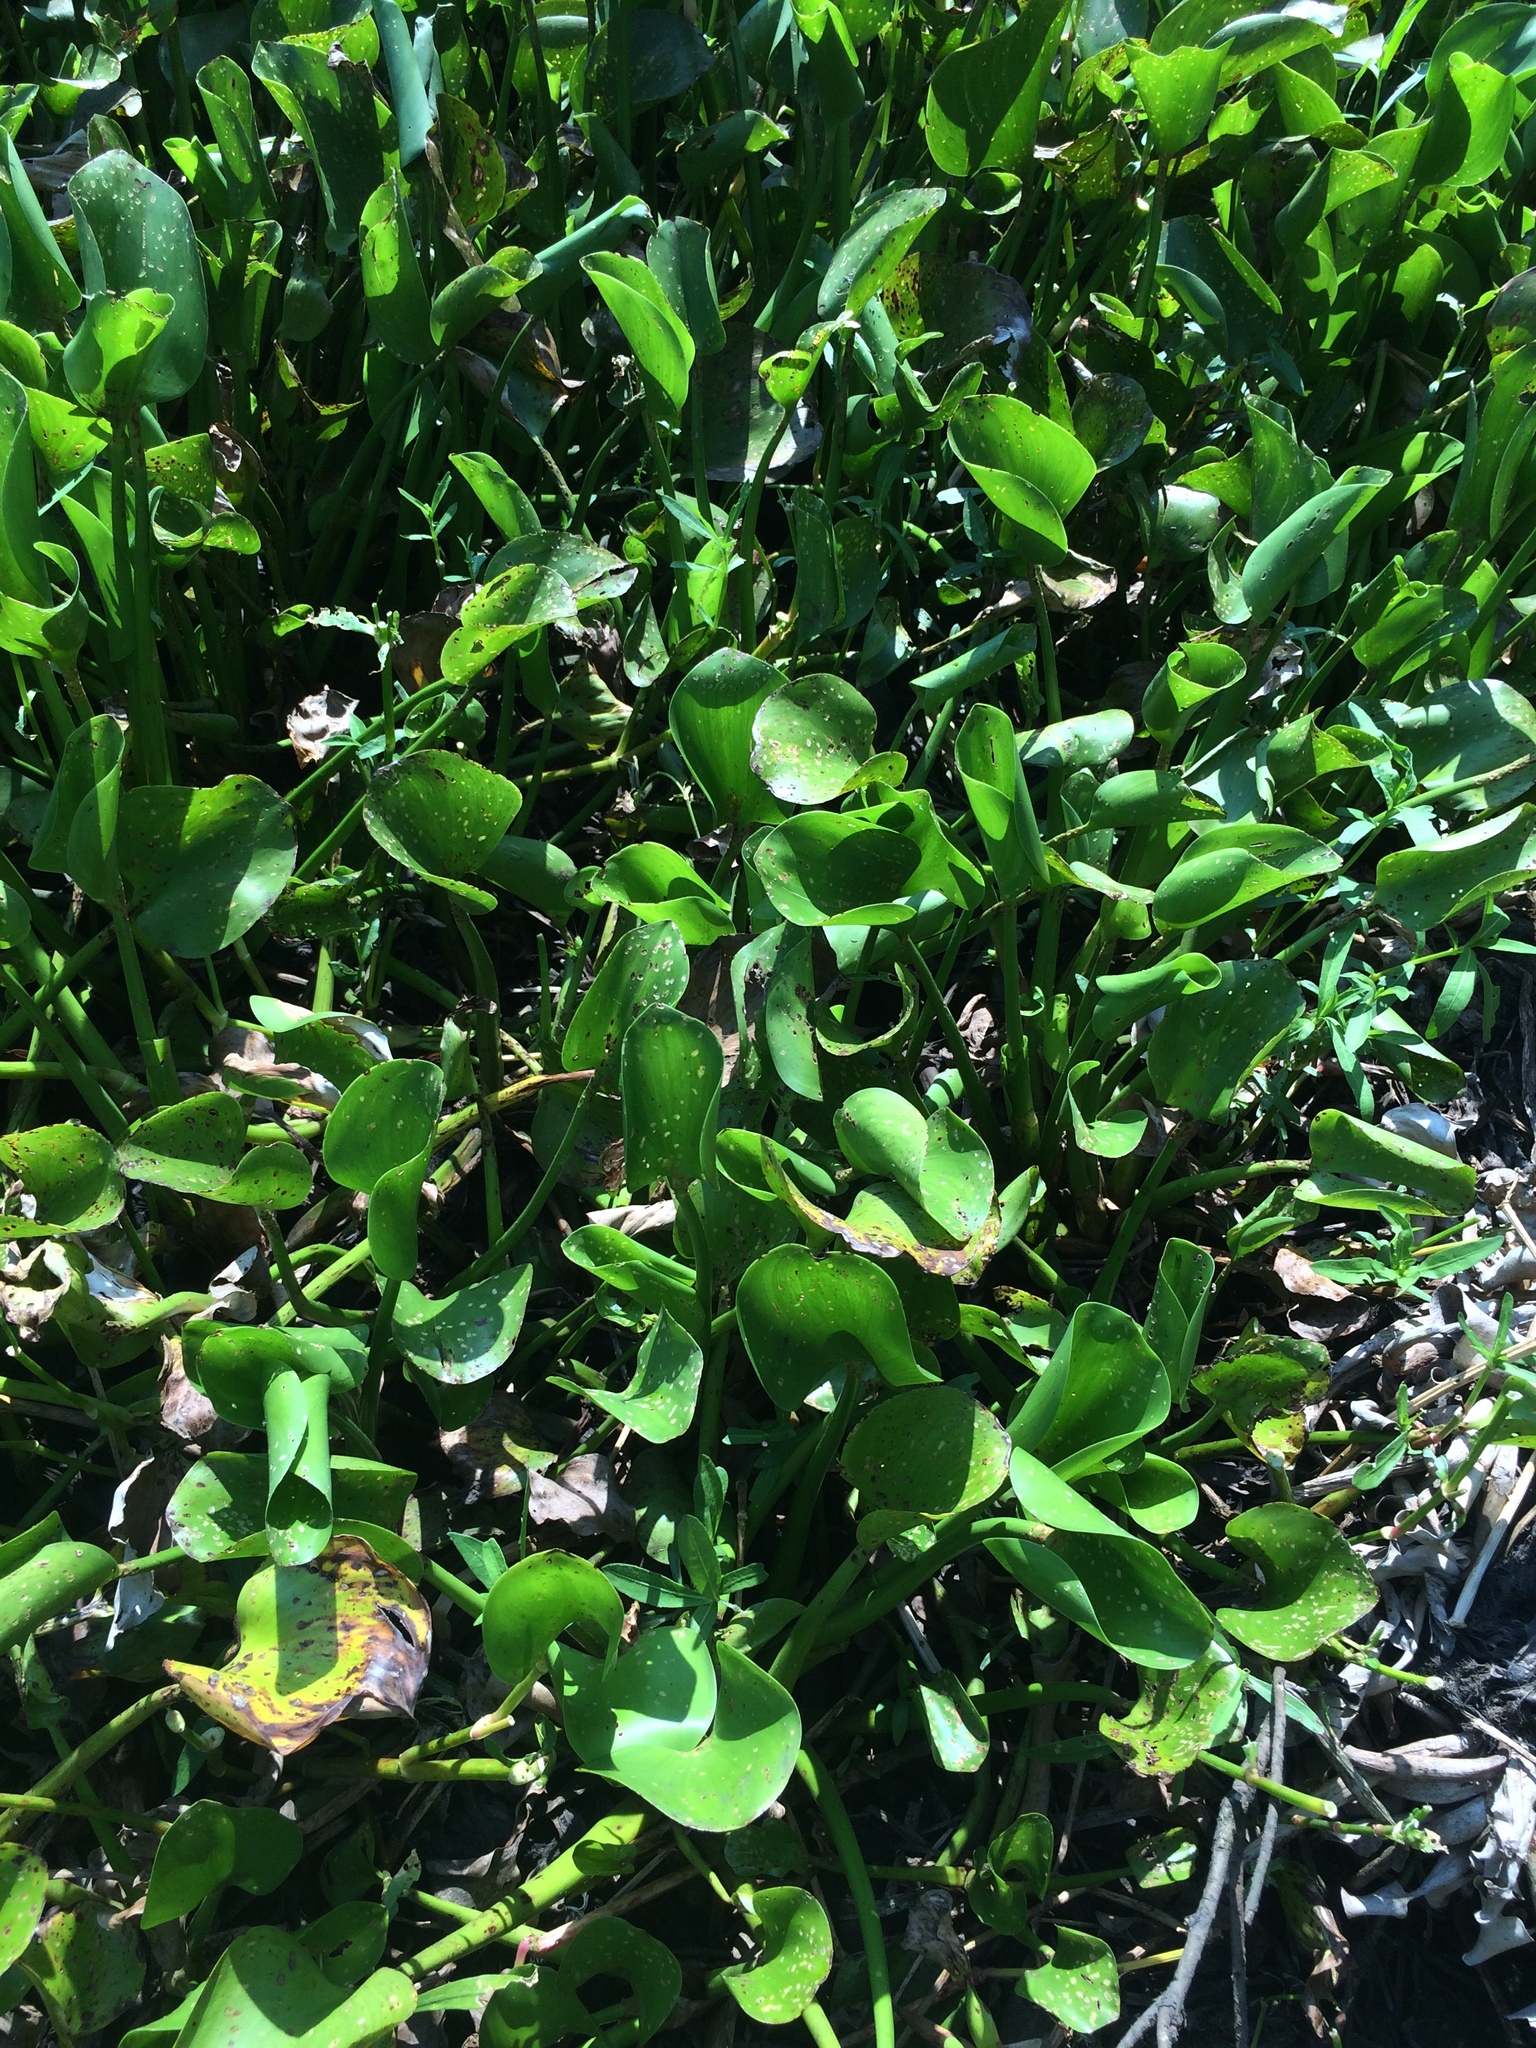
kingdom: Plantae
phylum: Tracheophyta
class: Liliopsida
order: Commelinales
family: Pontederiaceae
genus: Pontederia
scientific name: Pontederia crassipes
